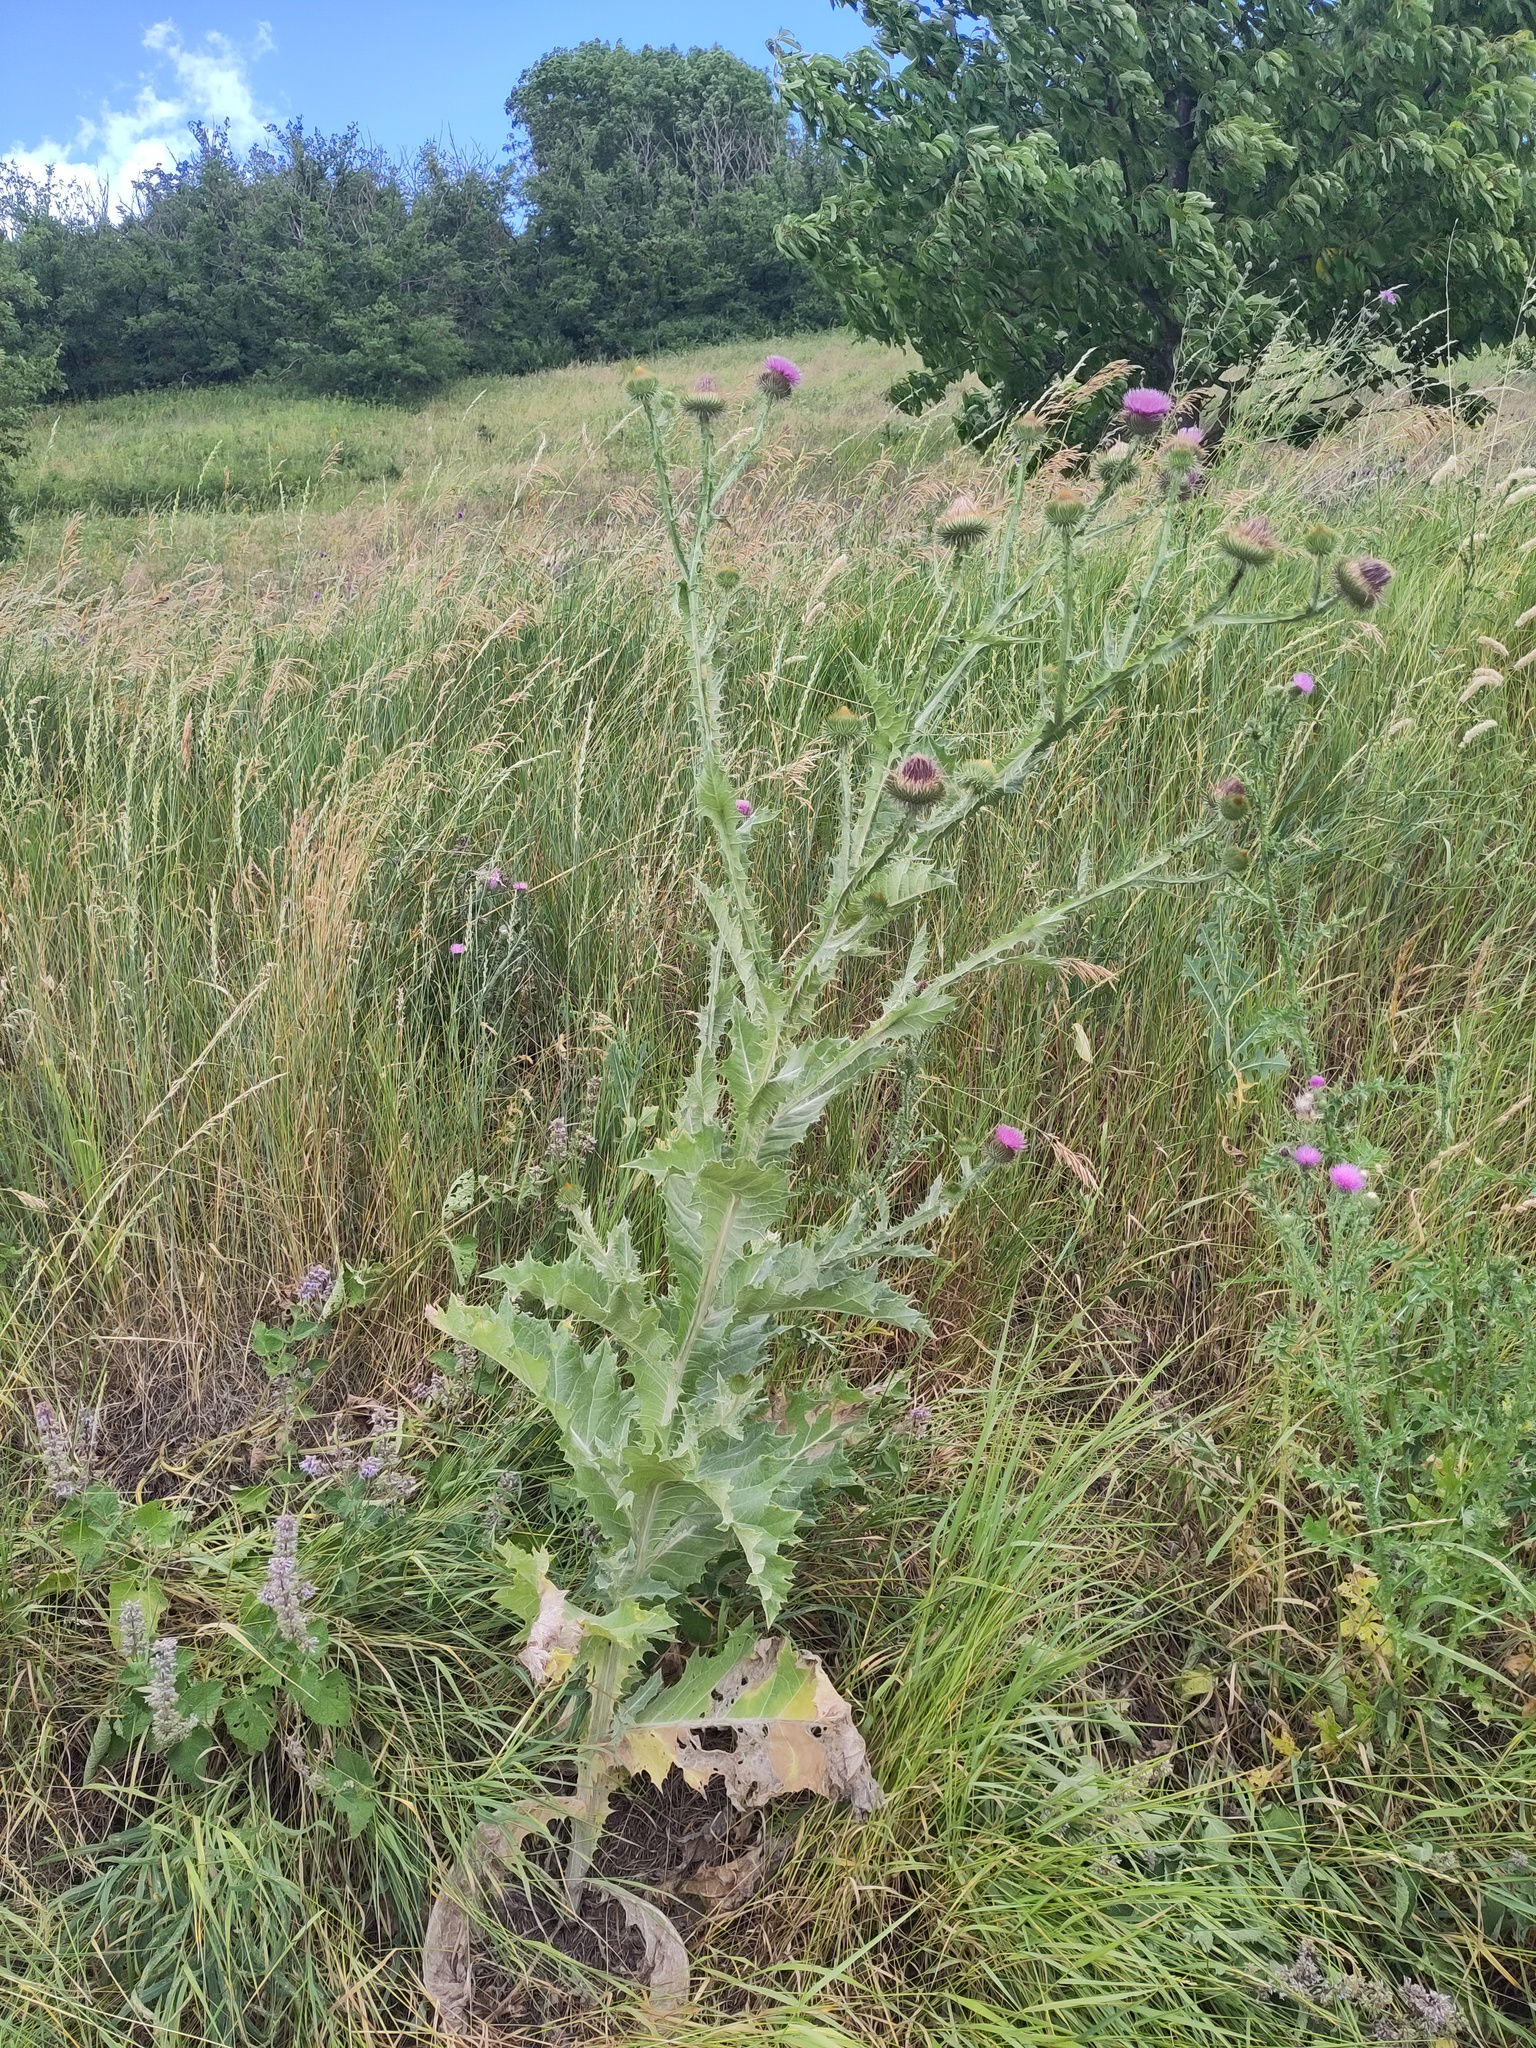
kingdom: Plantae
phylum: Tracheophyta
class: Magnoliopsida
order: Asterales
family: Asteraceae
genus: Onopordum
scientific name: Onopordum acanthium
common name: Scotch thistle
